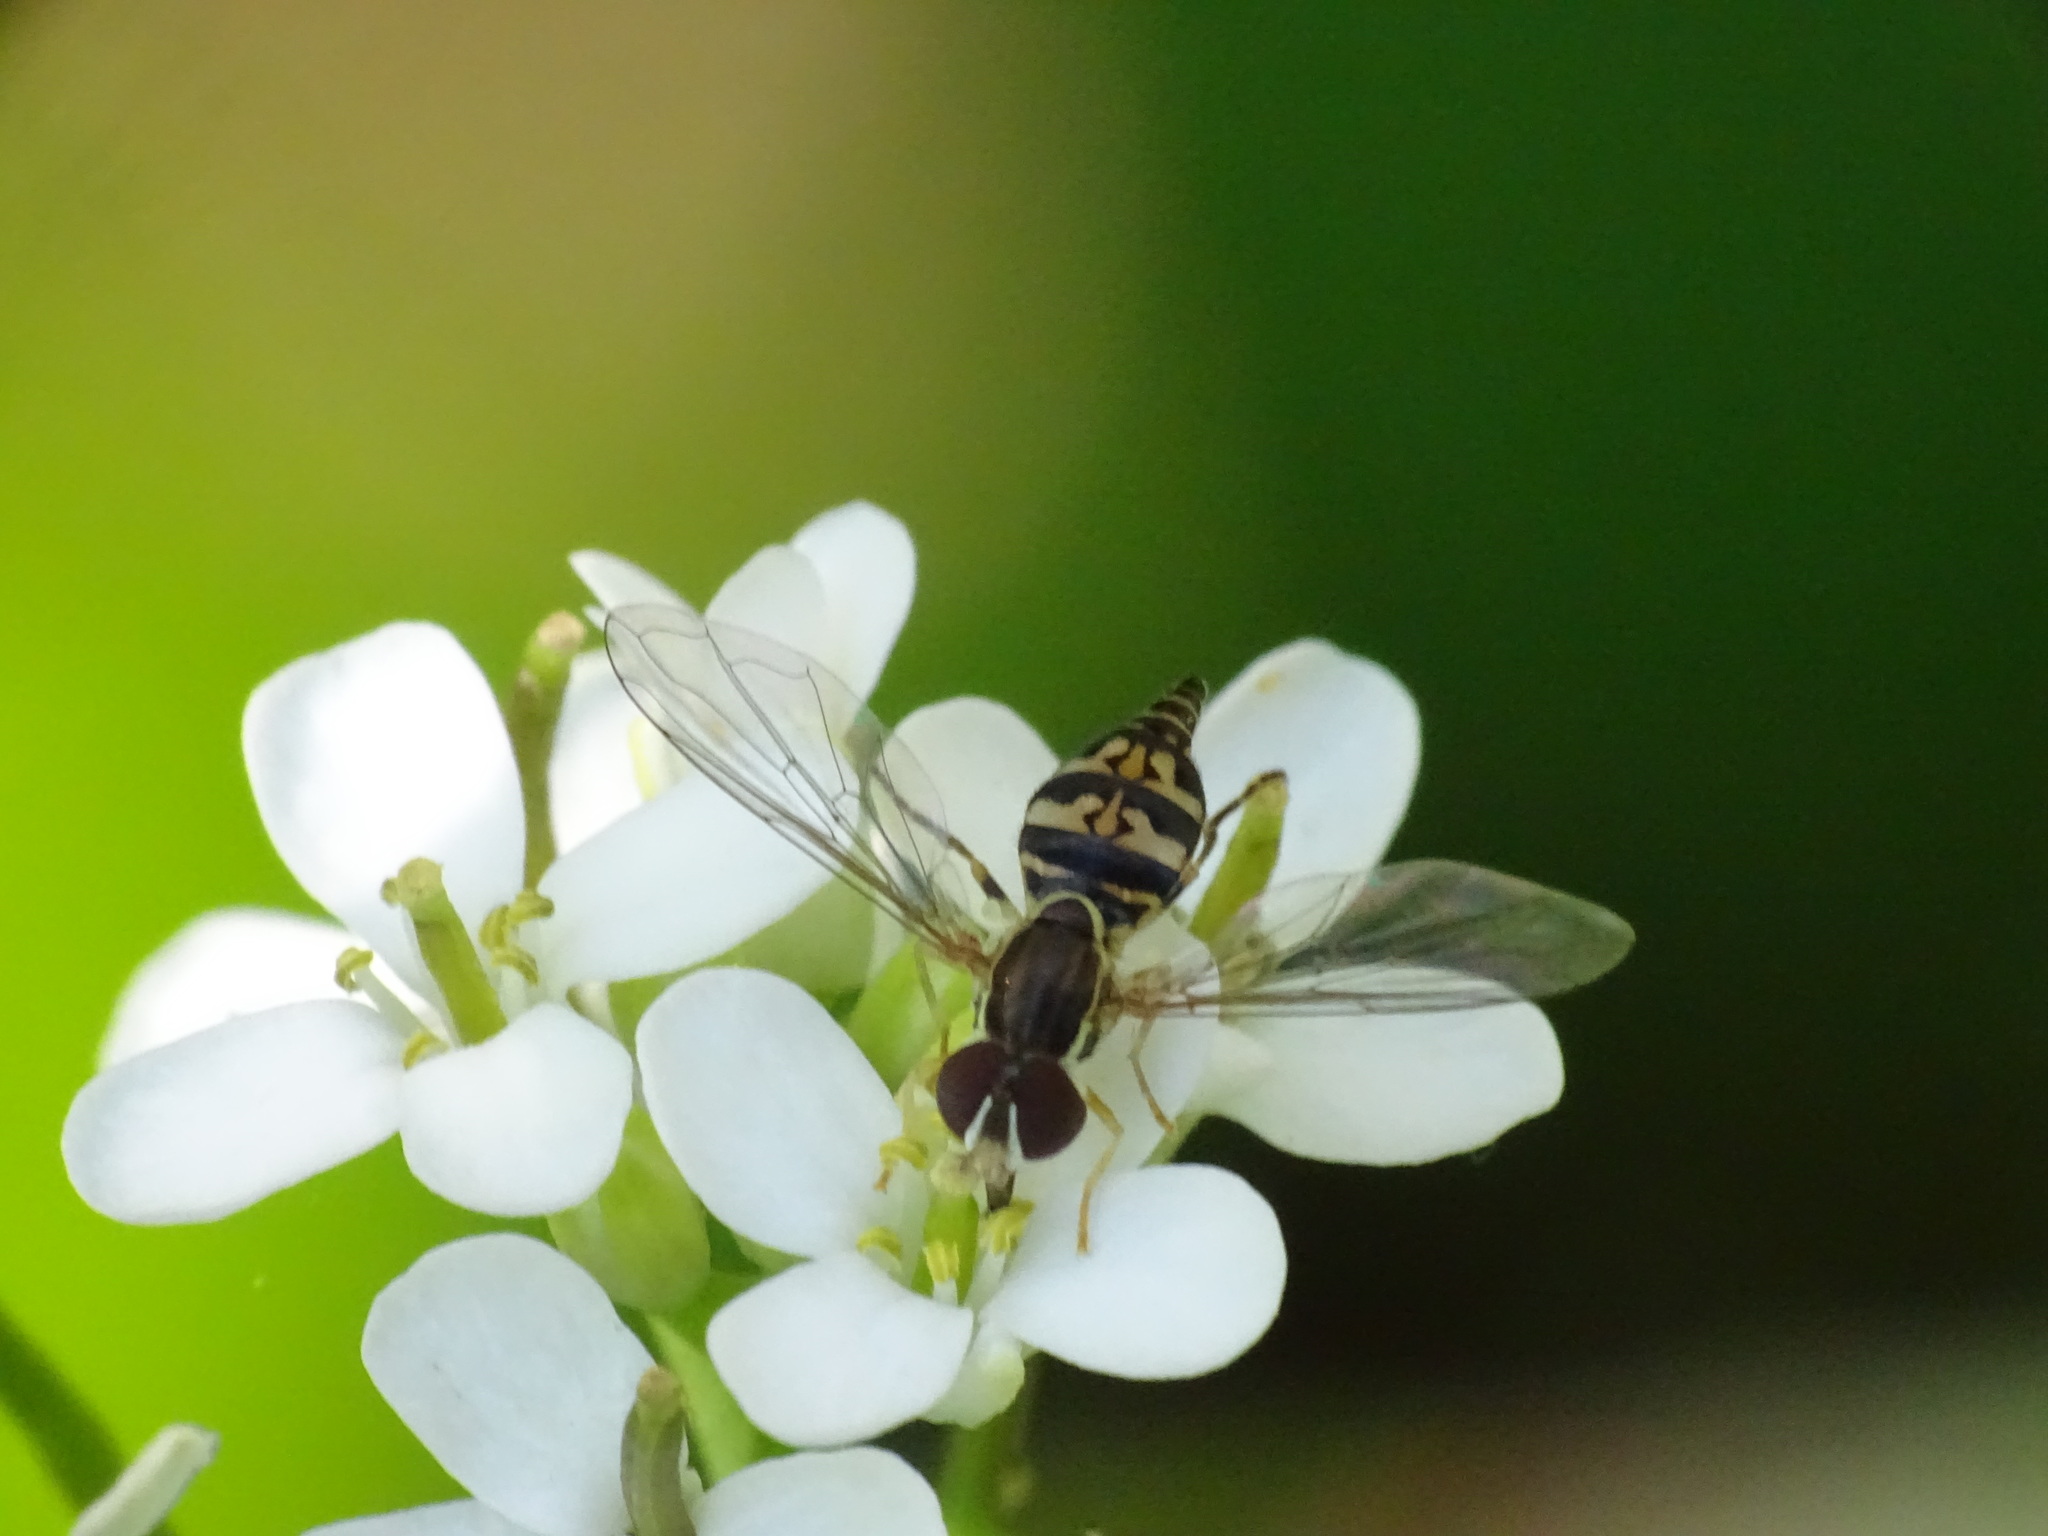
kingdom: Animalia
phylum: Arthropoda
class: Insecta
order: Diptera
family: Syrphidae
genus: Toxomerus
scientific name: Toxomerus geminatus
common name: Eastern calligrapher
